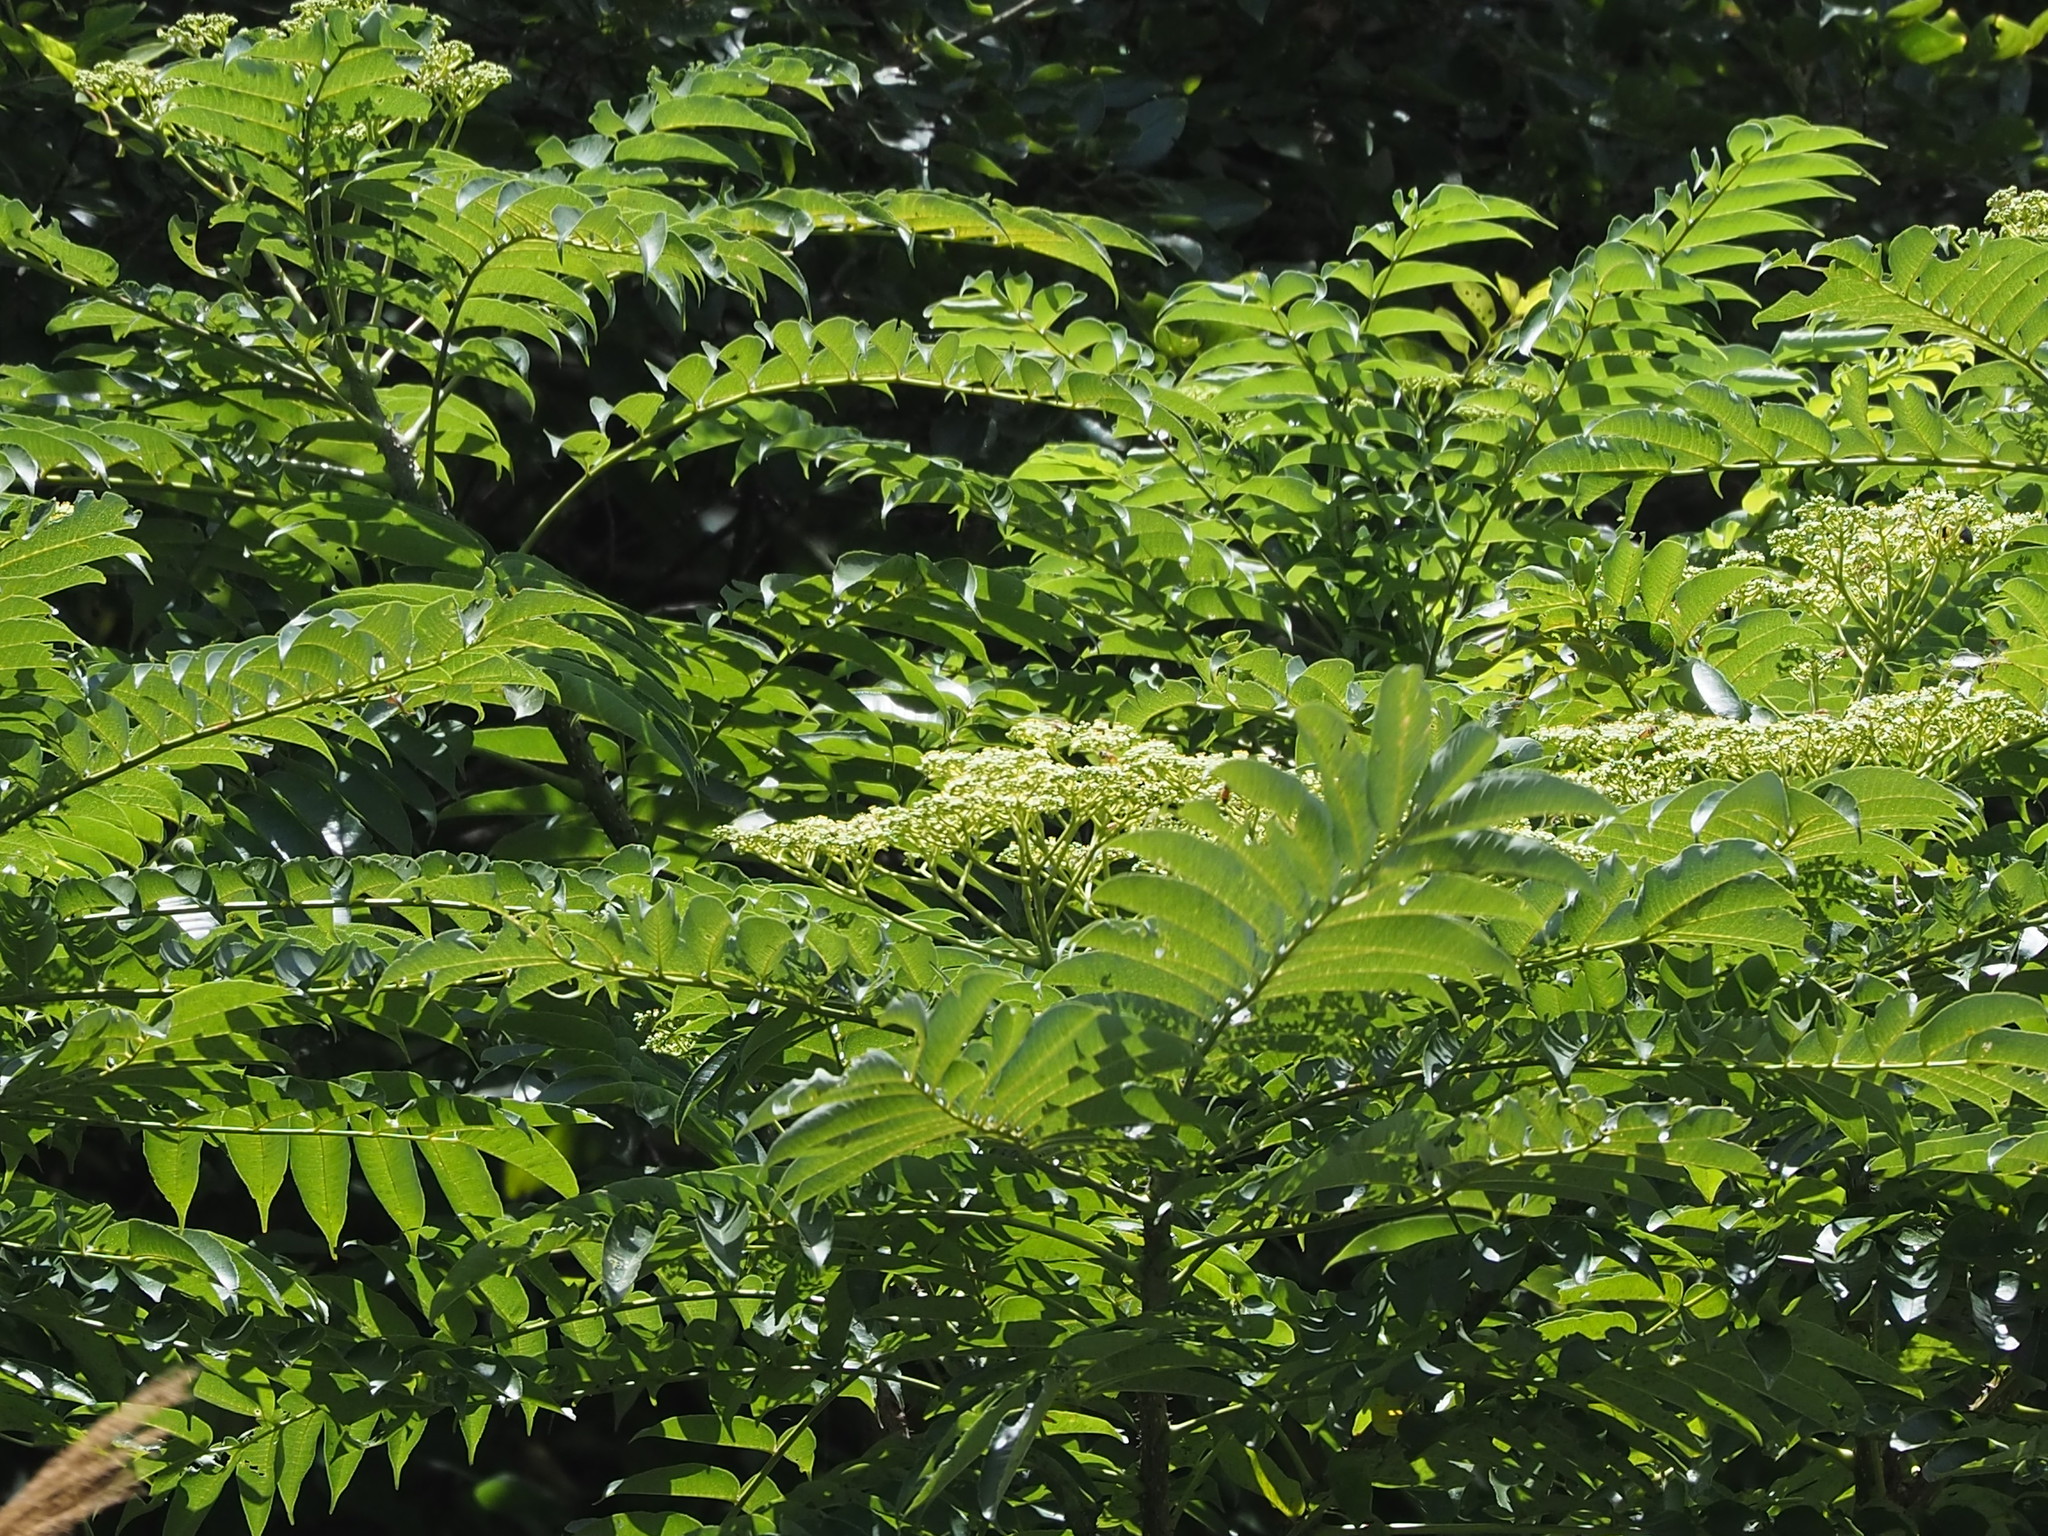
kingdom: Plantae
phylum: Tracheophyta
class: Magnoliopsida
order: Sapindales
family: Rutaceae
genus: Zanthoxylum
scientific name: Zanthoxylum ailanthoides
